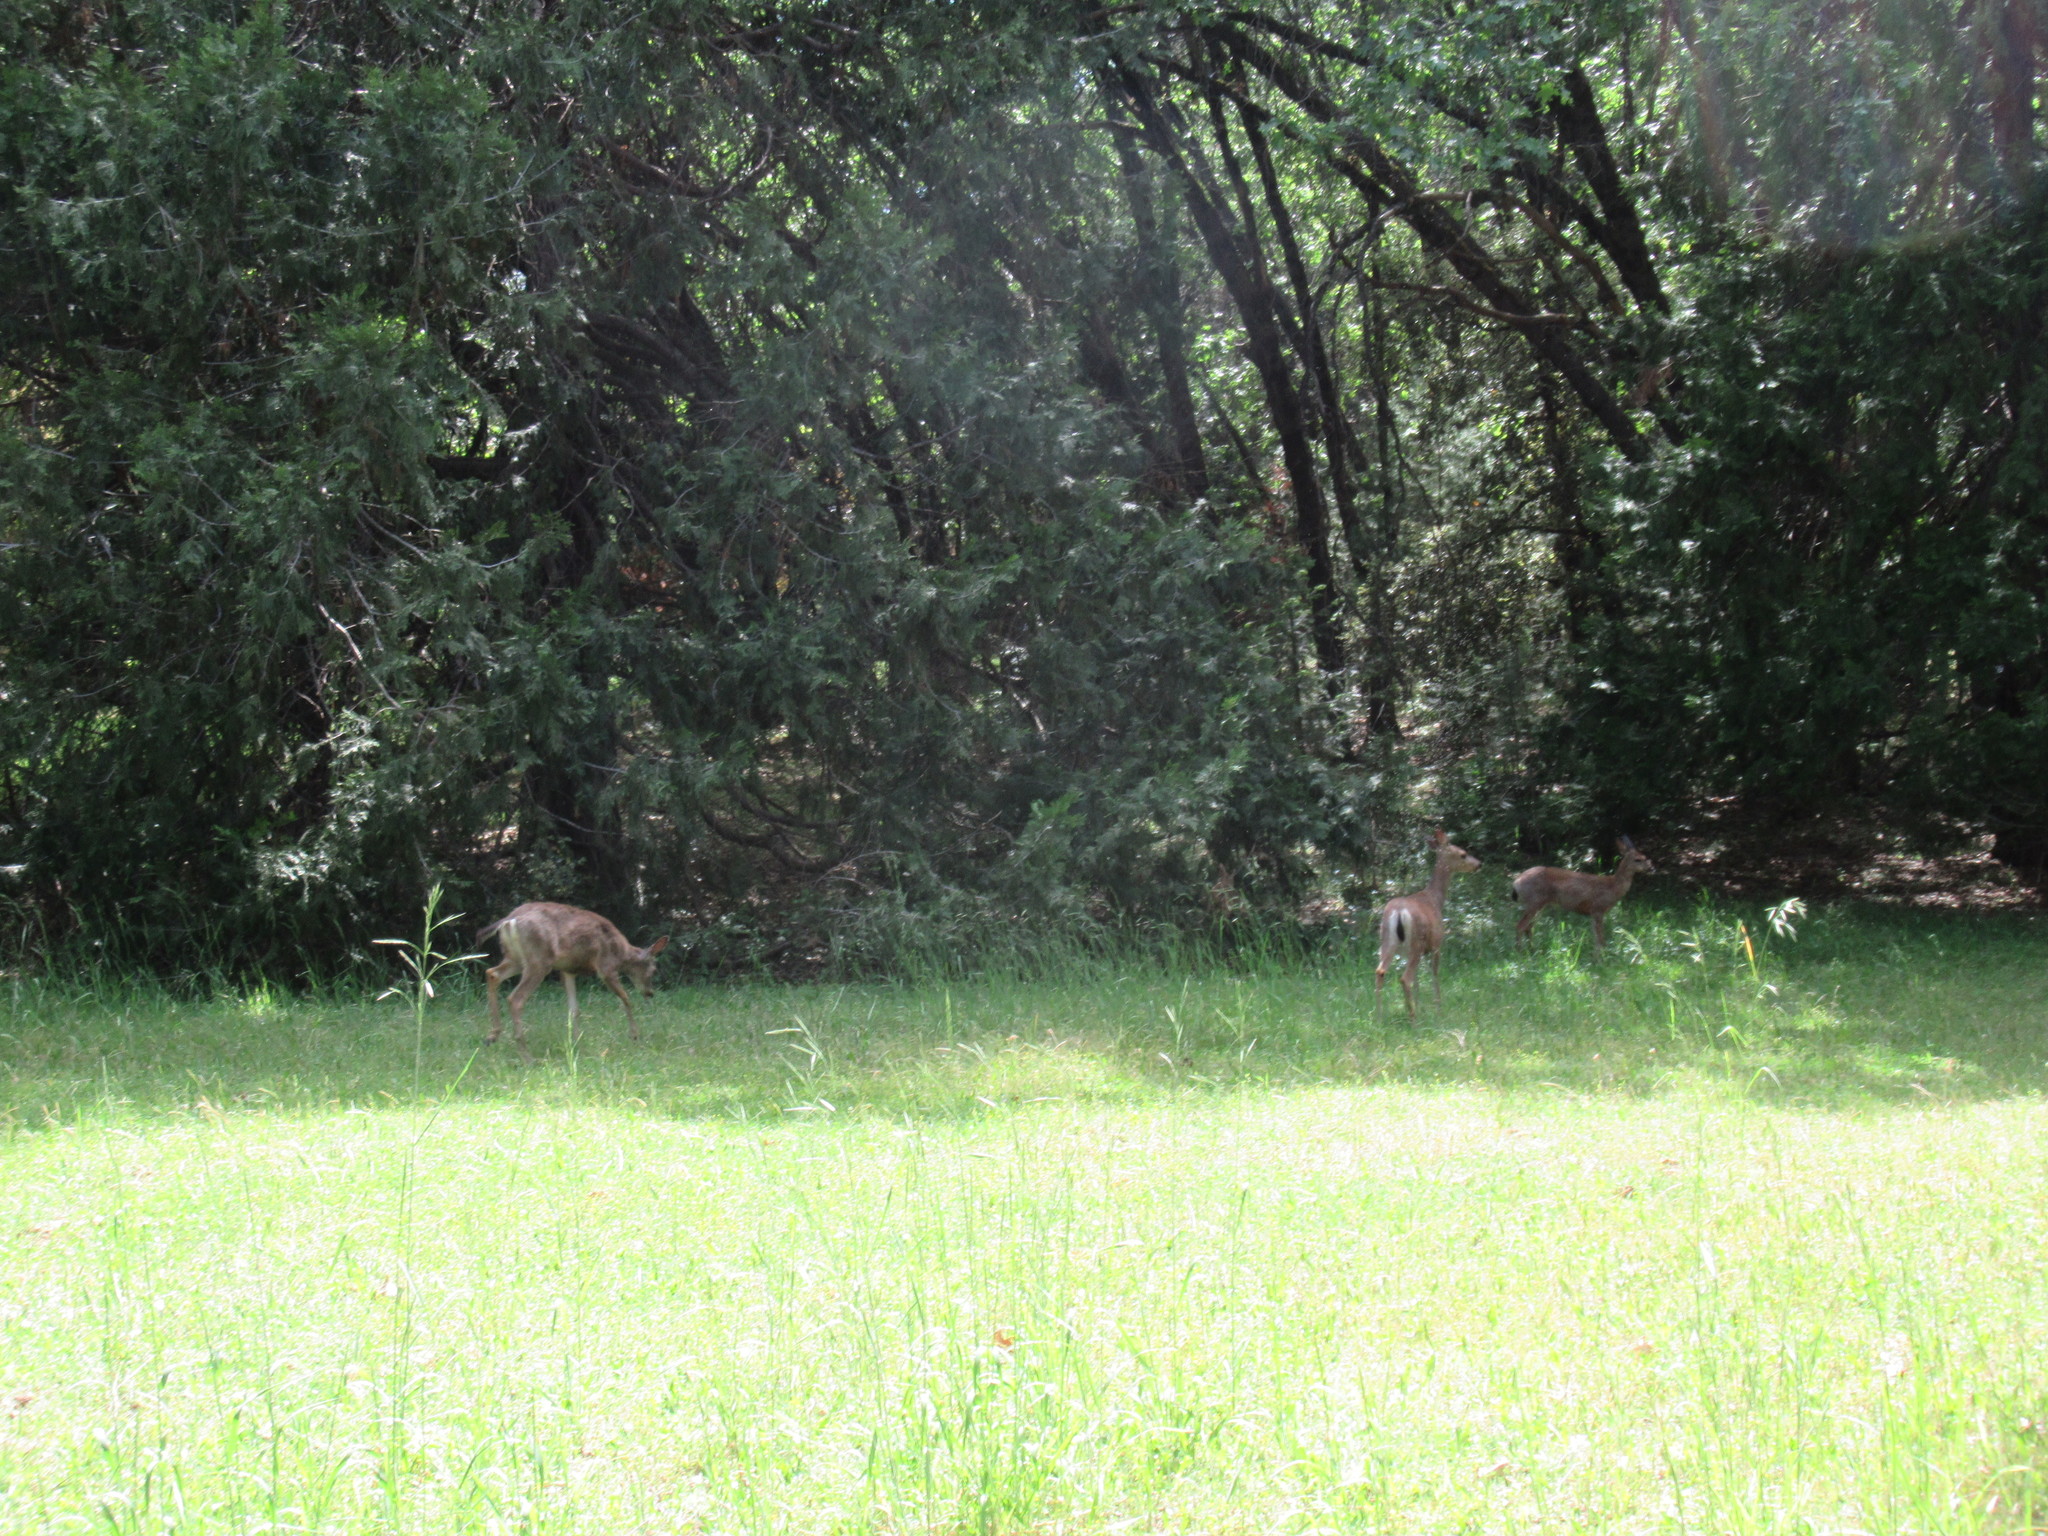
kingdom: Animalia
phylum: Chordata
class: Mammalia
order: Artiodactyla
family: Cervidae
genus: Odocoileus
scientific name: Odocoileus hemionus
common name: Mule deer
